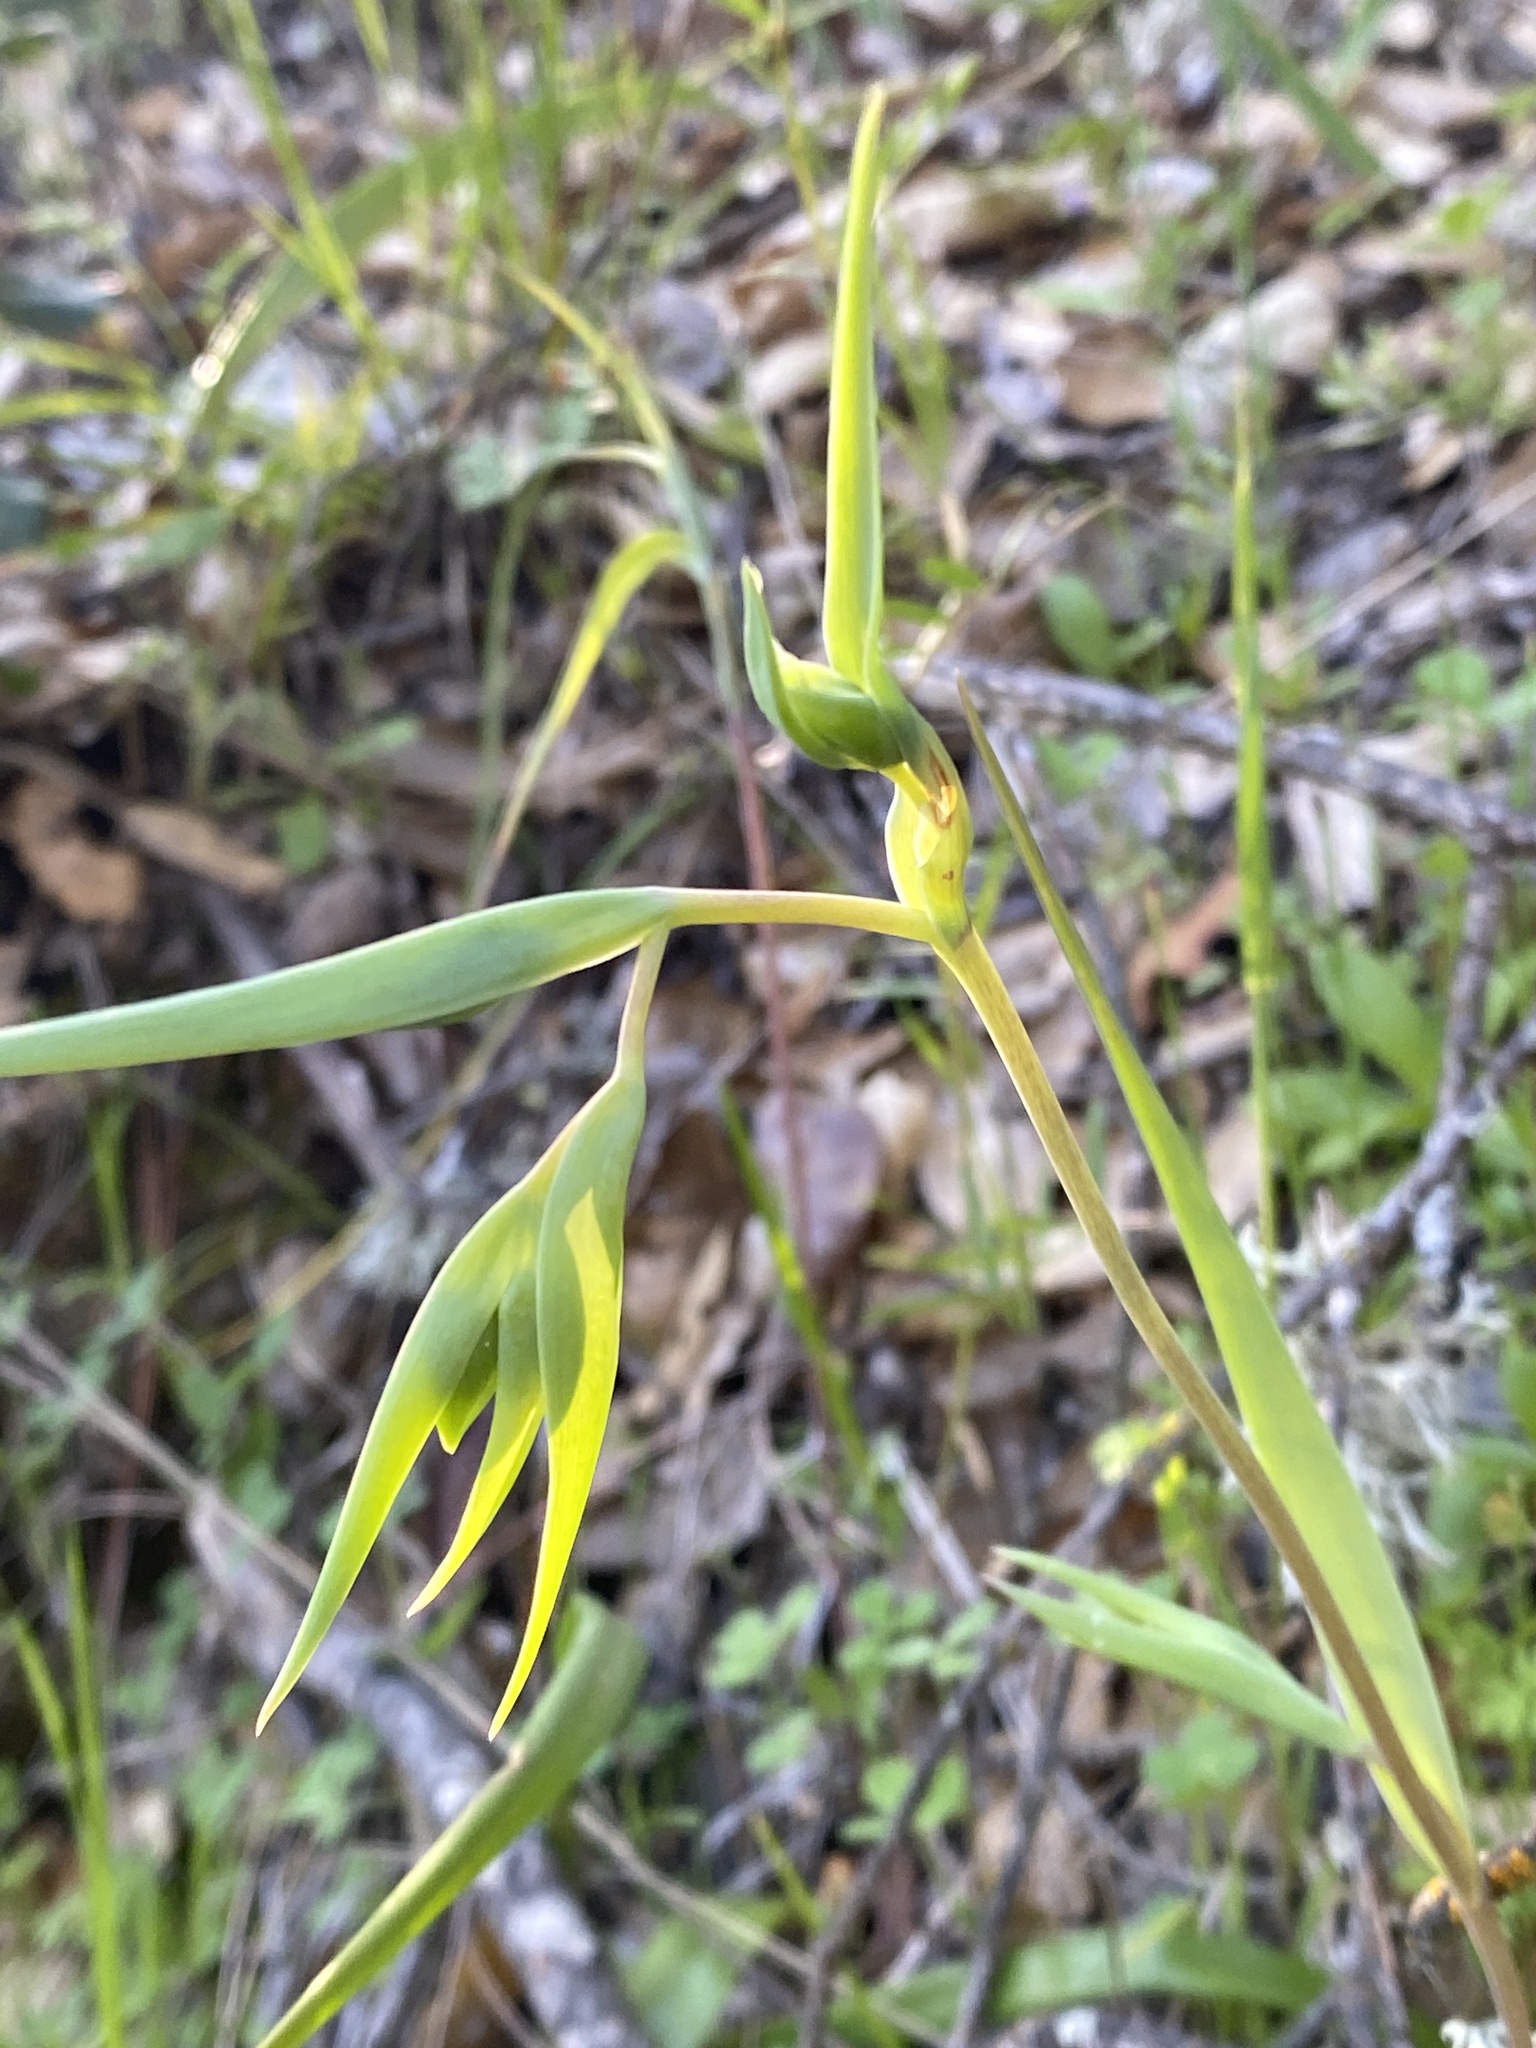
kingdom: Plantae
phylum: Tracheophyta
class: Liliopsida
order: Liliales
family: Liliaceae
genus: Calochortus
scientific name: Calochortus albus
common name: Fairy-lantern
